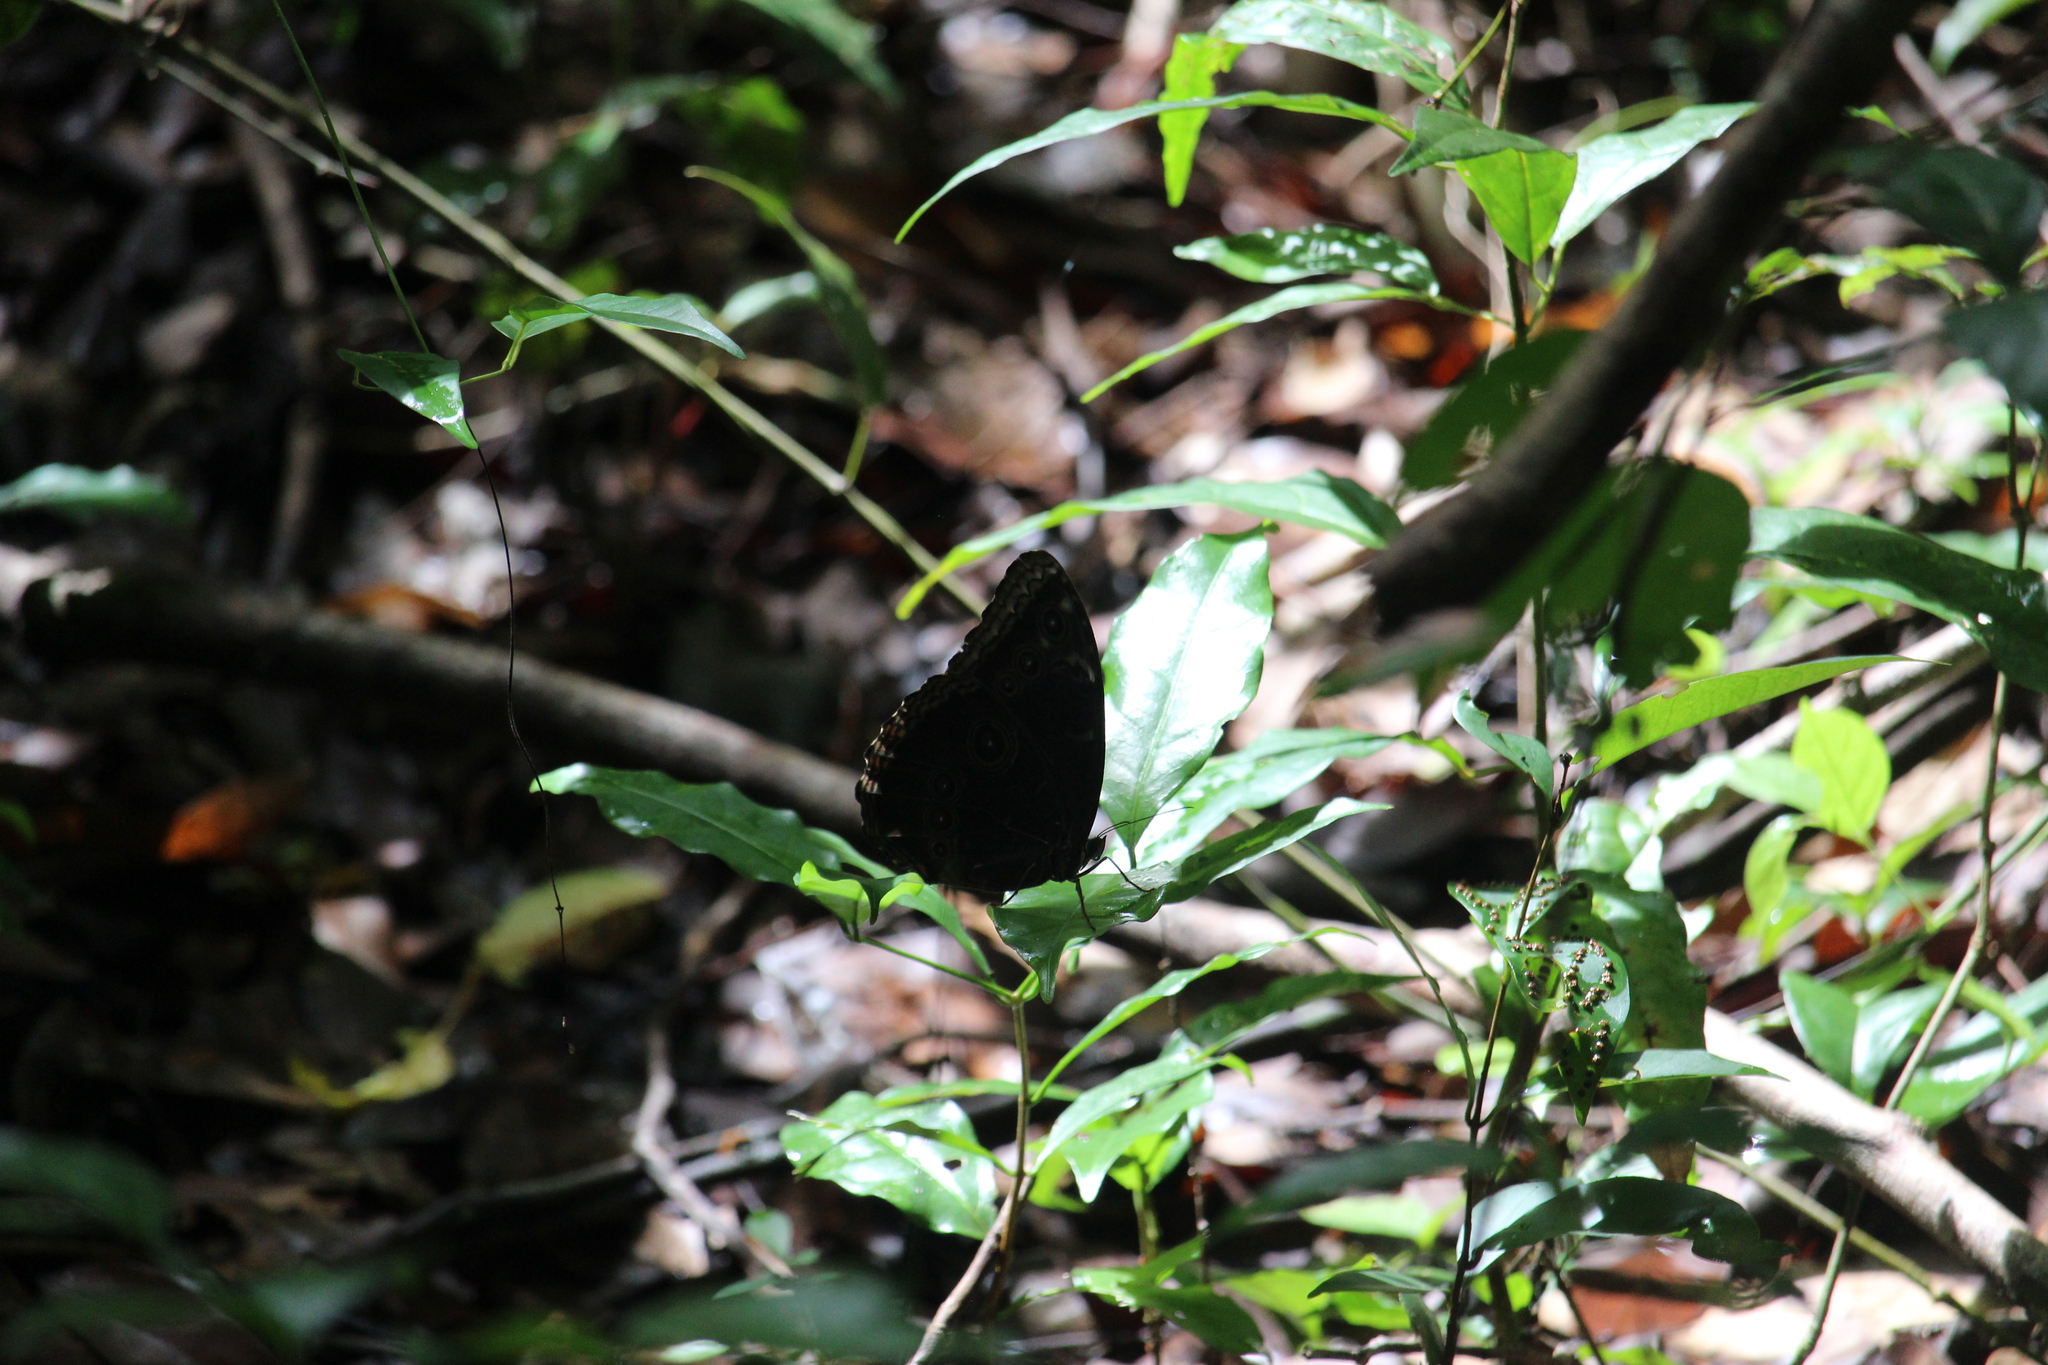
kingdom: Animalia
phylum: Arthropoda
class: Insecta
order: Lepidoptera
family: Nymphalidae
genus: Morpho
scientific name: Morpho helenor
